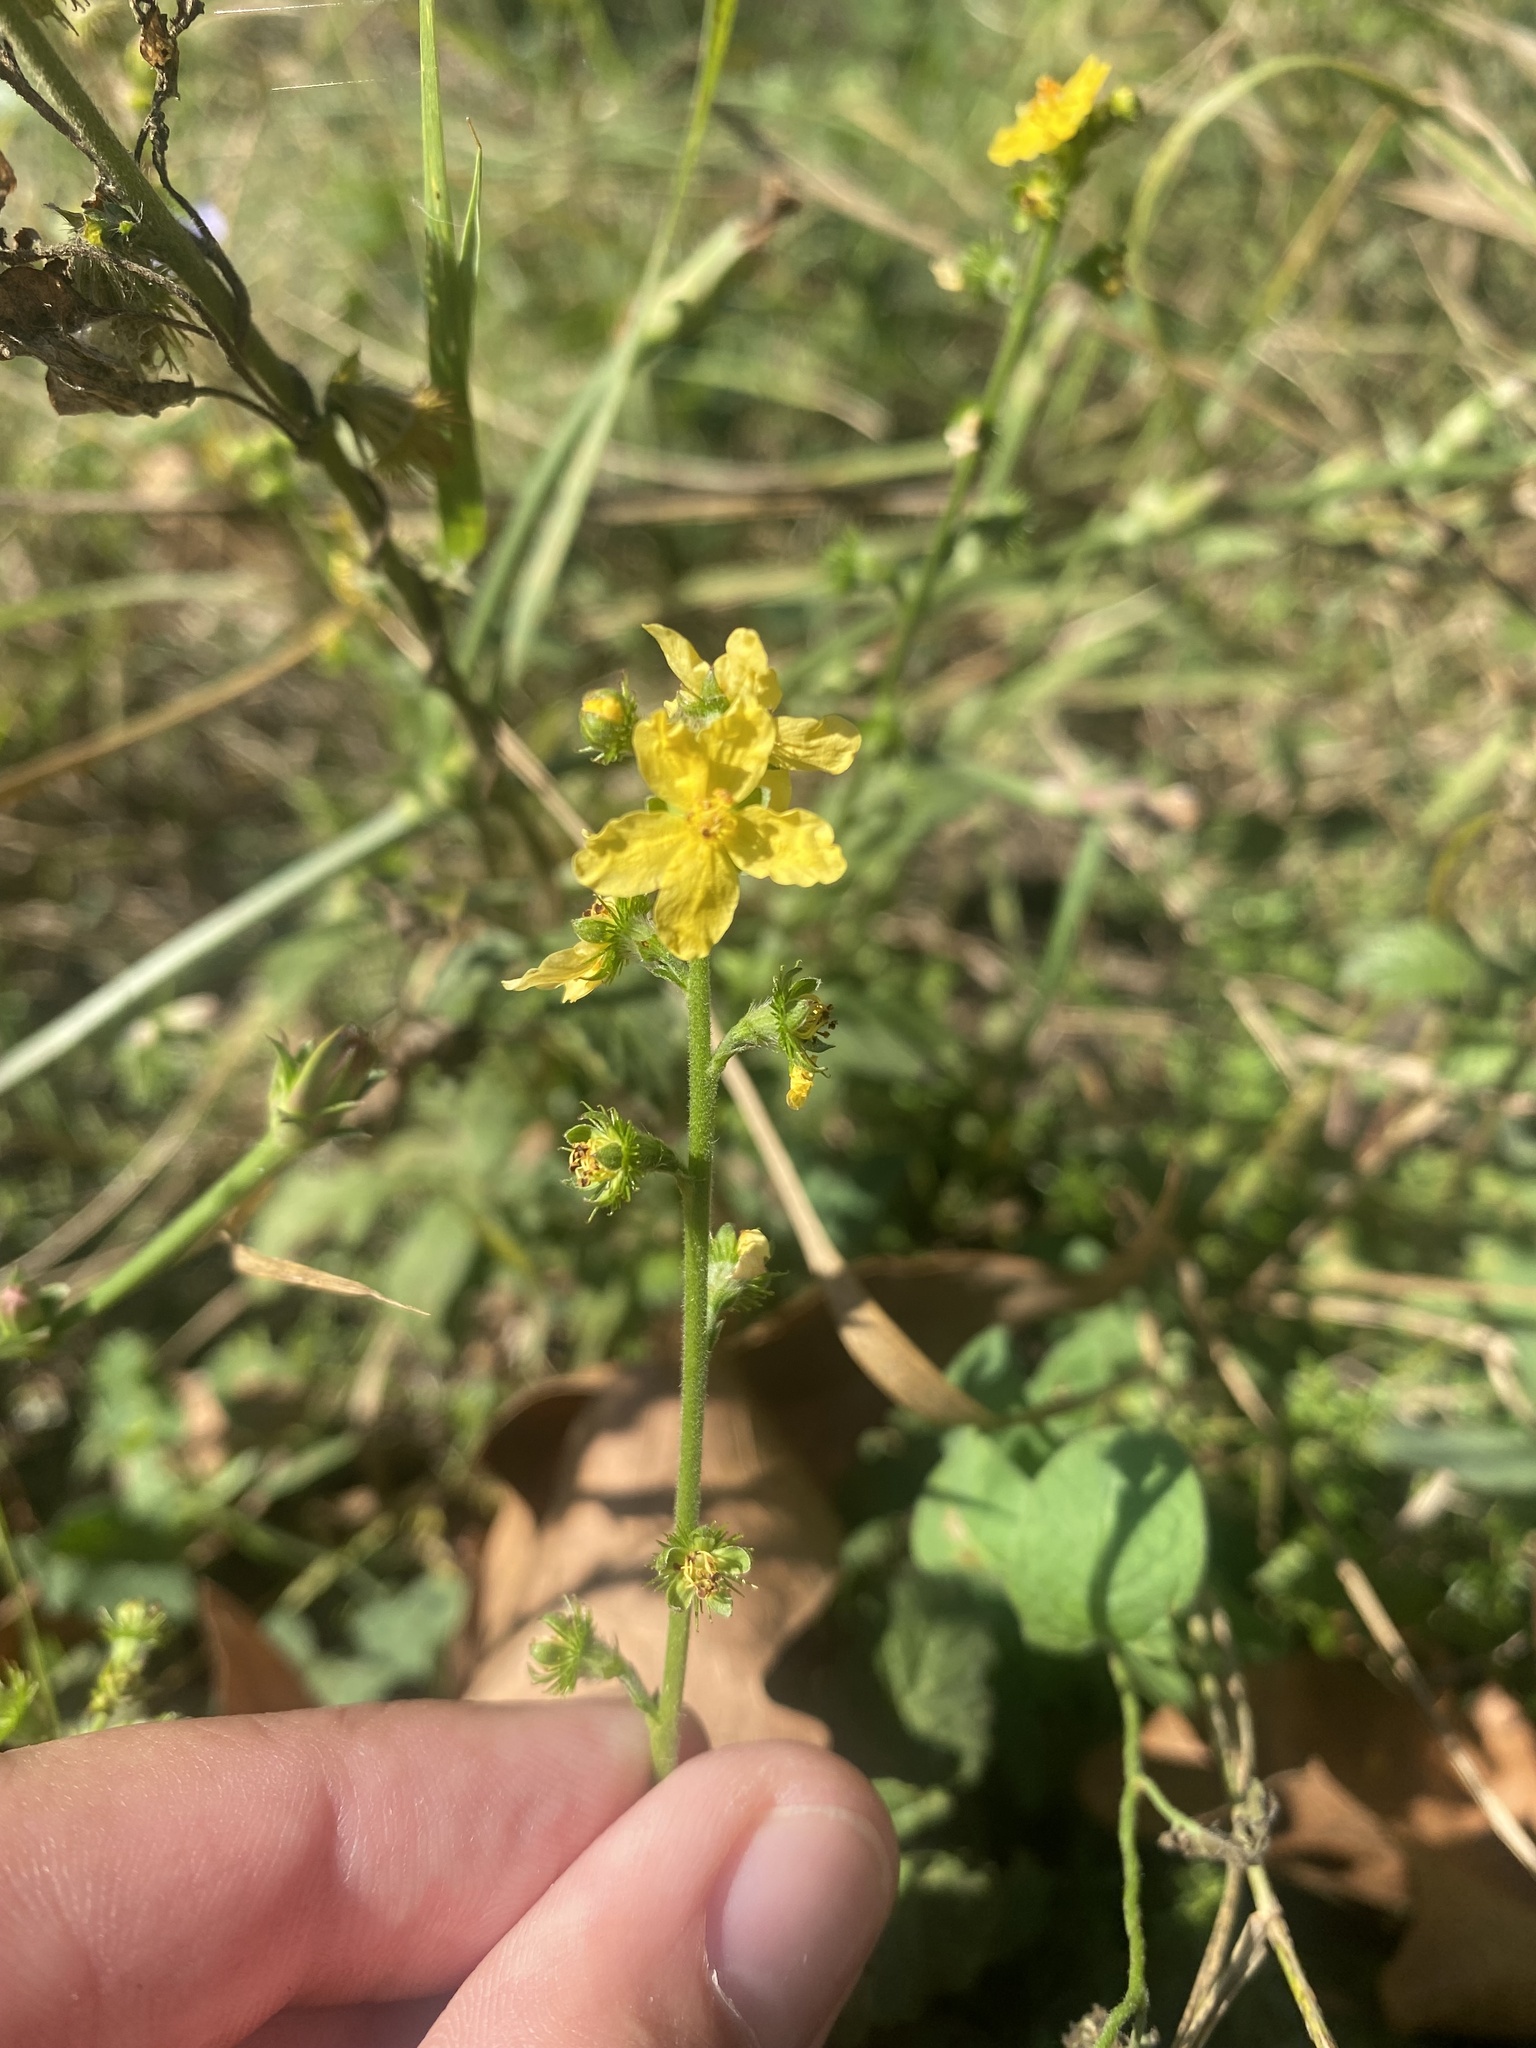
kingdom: Plantae
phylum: Tracheophyta
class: Magnoliopsida
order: Rosales
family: Rosaceae
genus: Agrimonia
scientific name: Agrimonia eupatoria
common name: Agrimony
